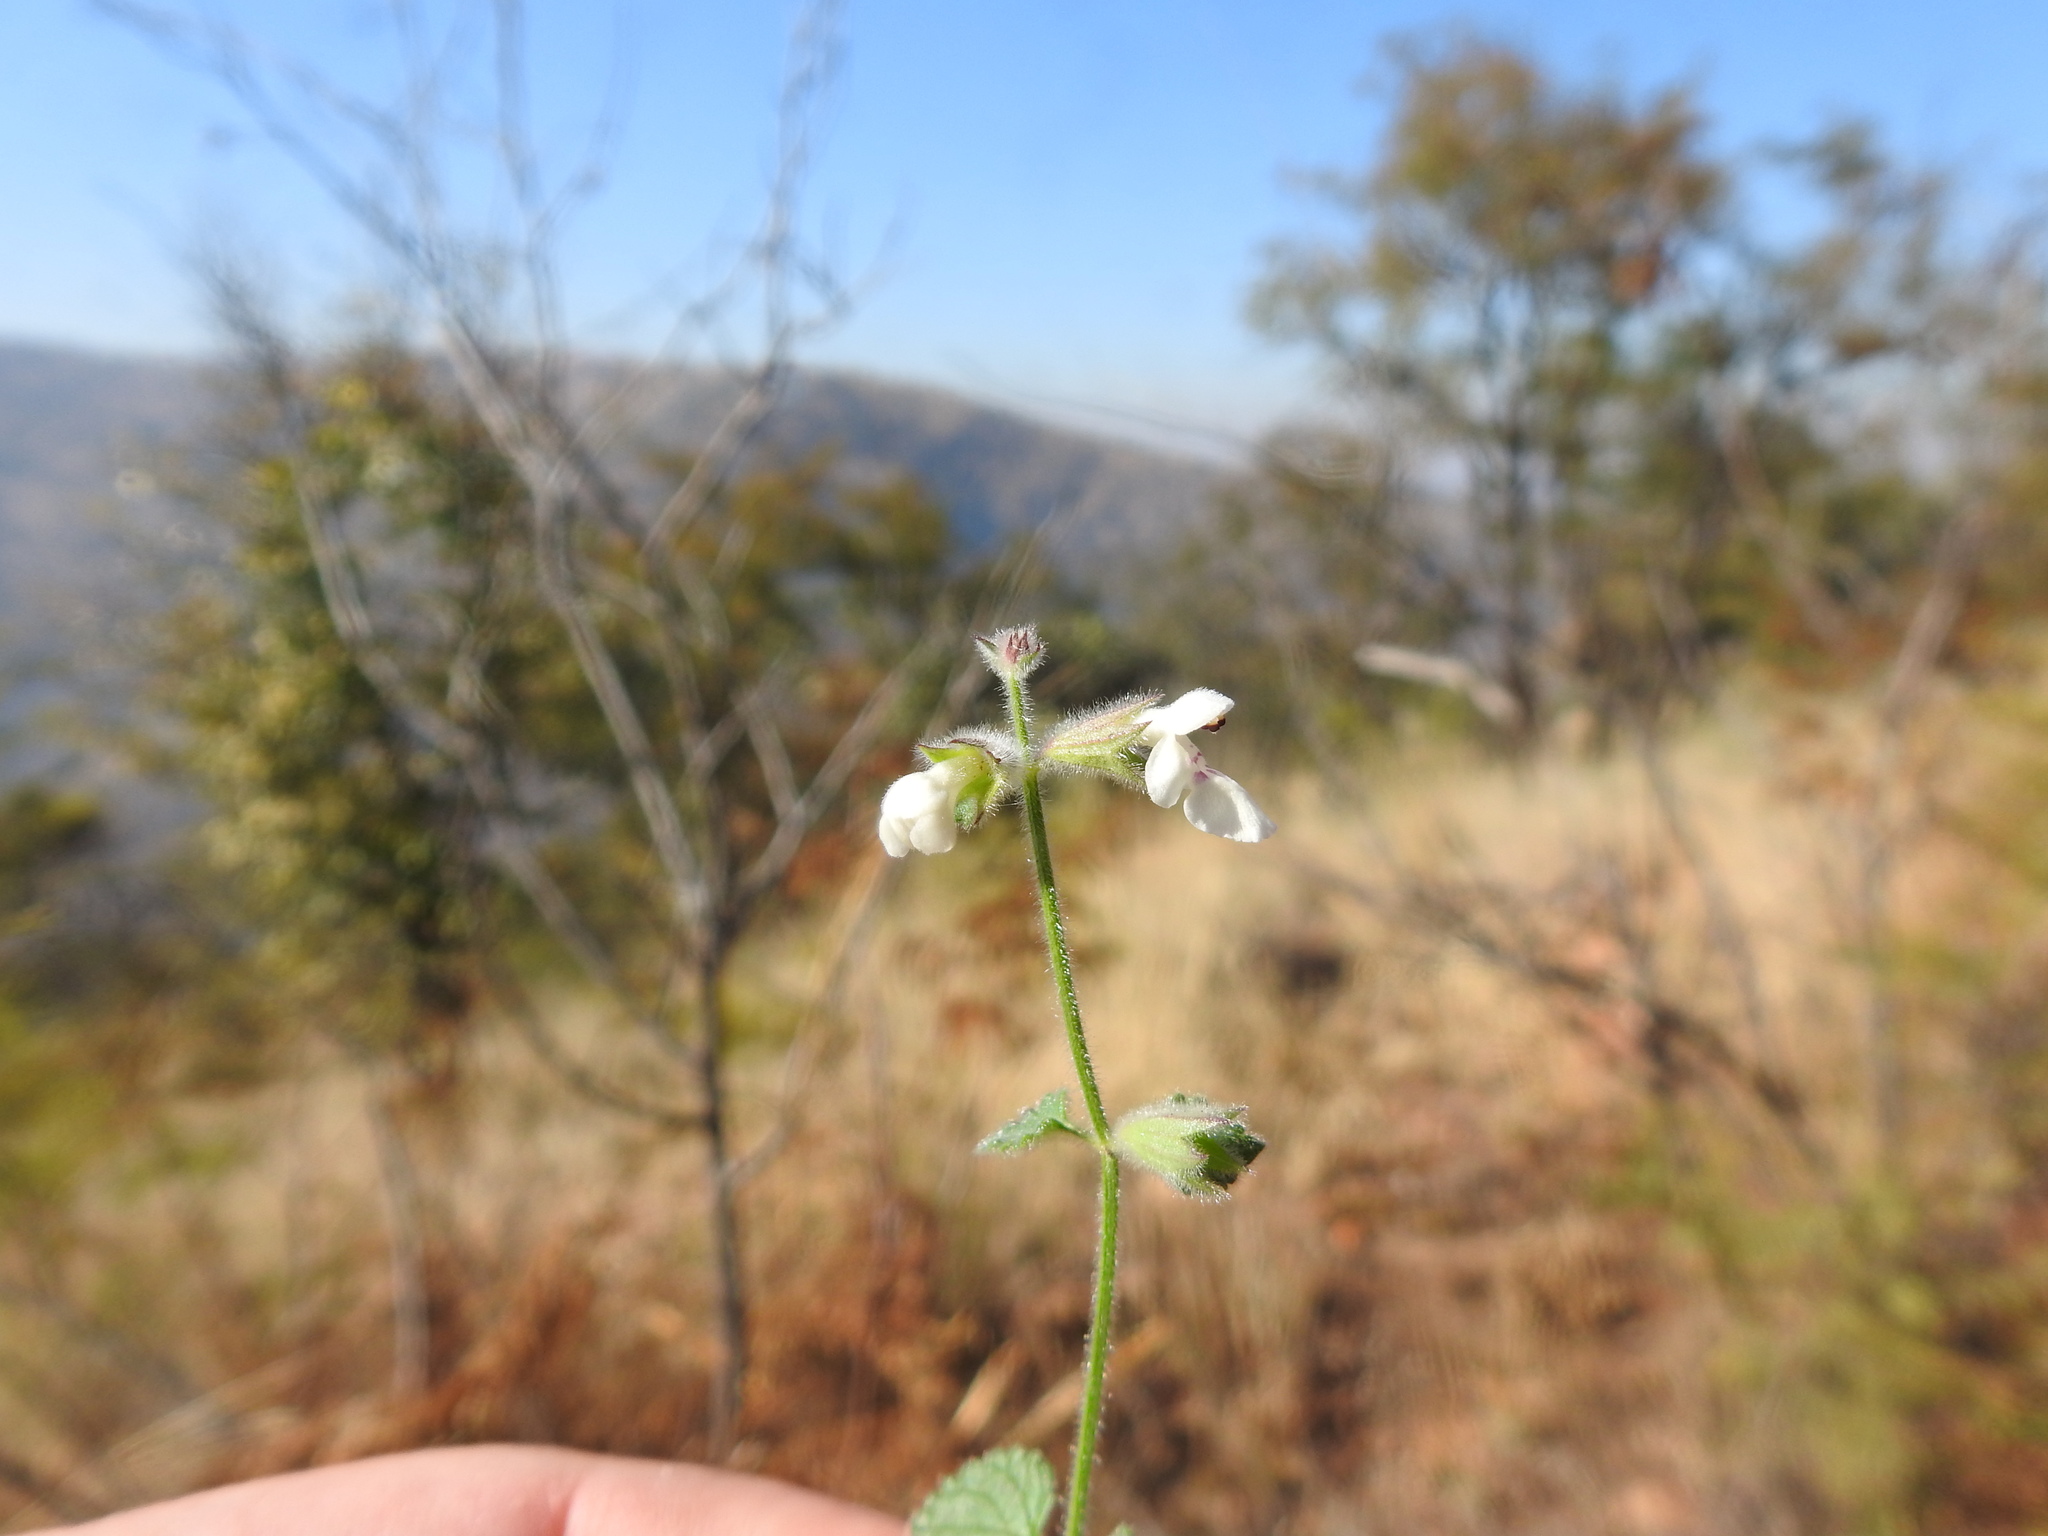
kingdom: Plantae
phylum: Tracheophyta
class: Magnoliopsida
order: Lamiales
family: Lamiaceae
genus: Stachys
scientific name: Stachys natalensis
